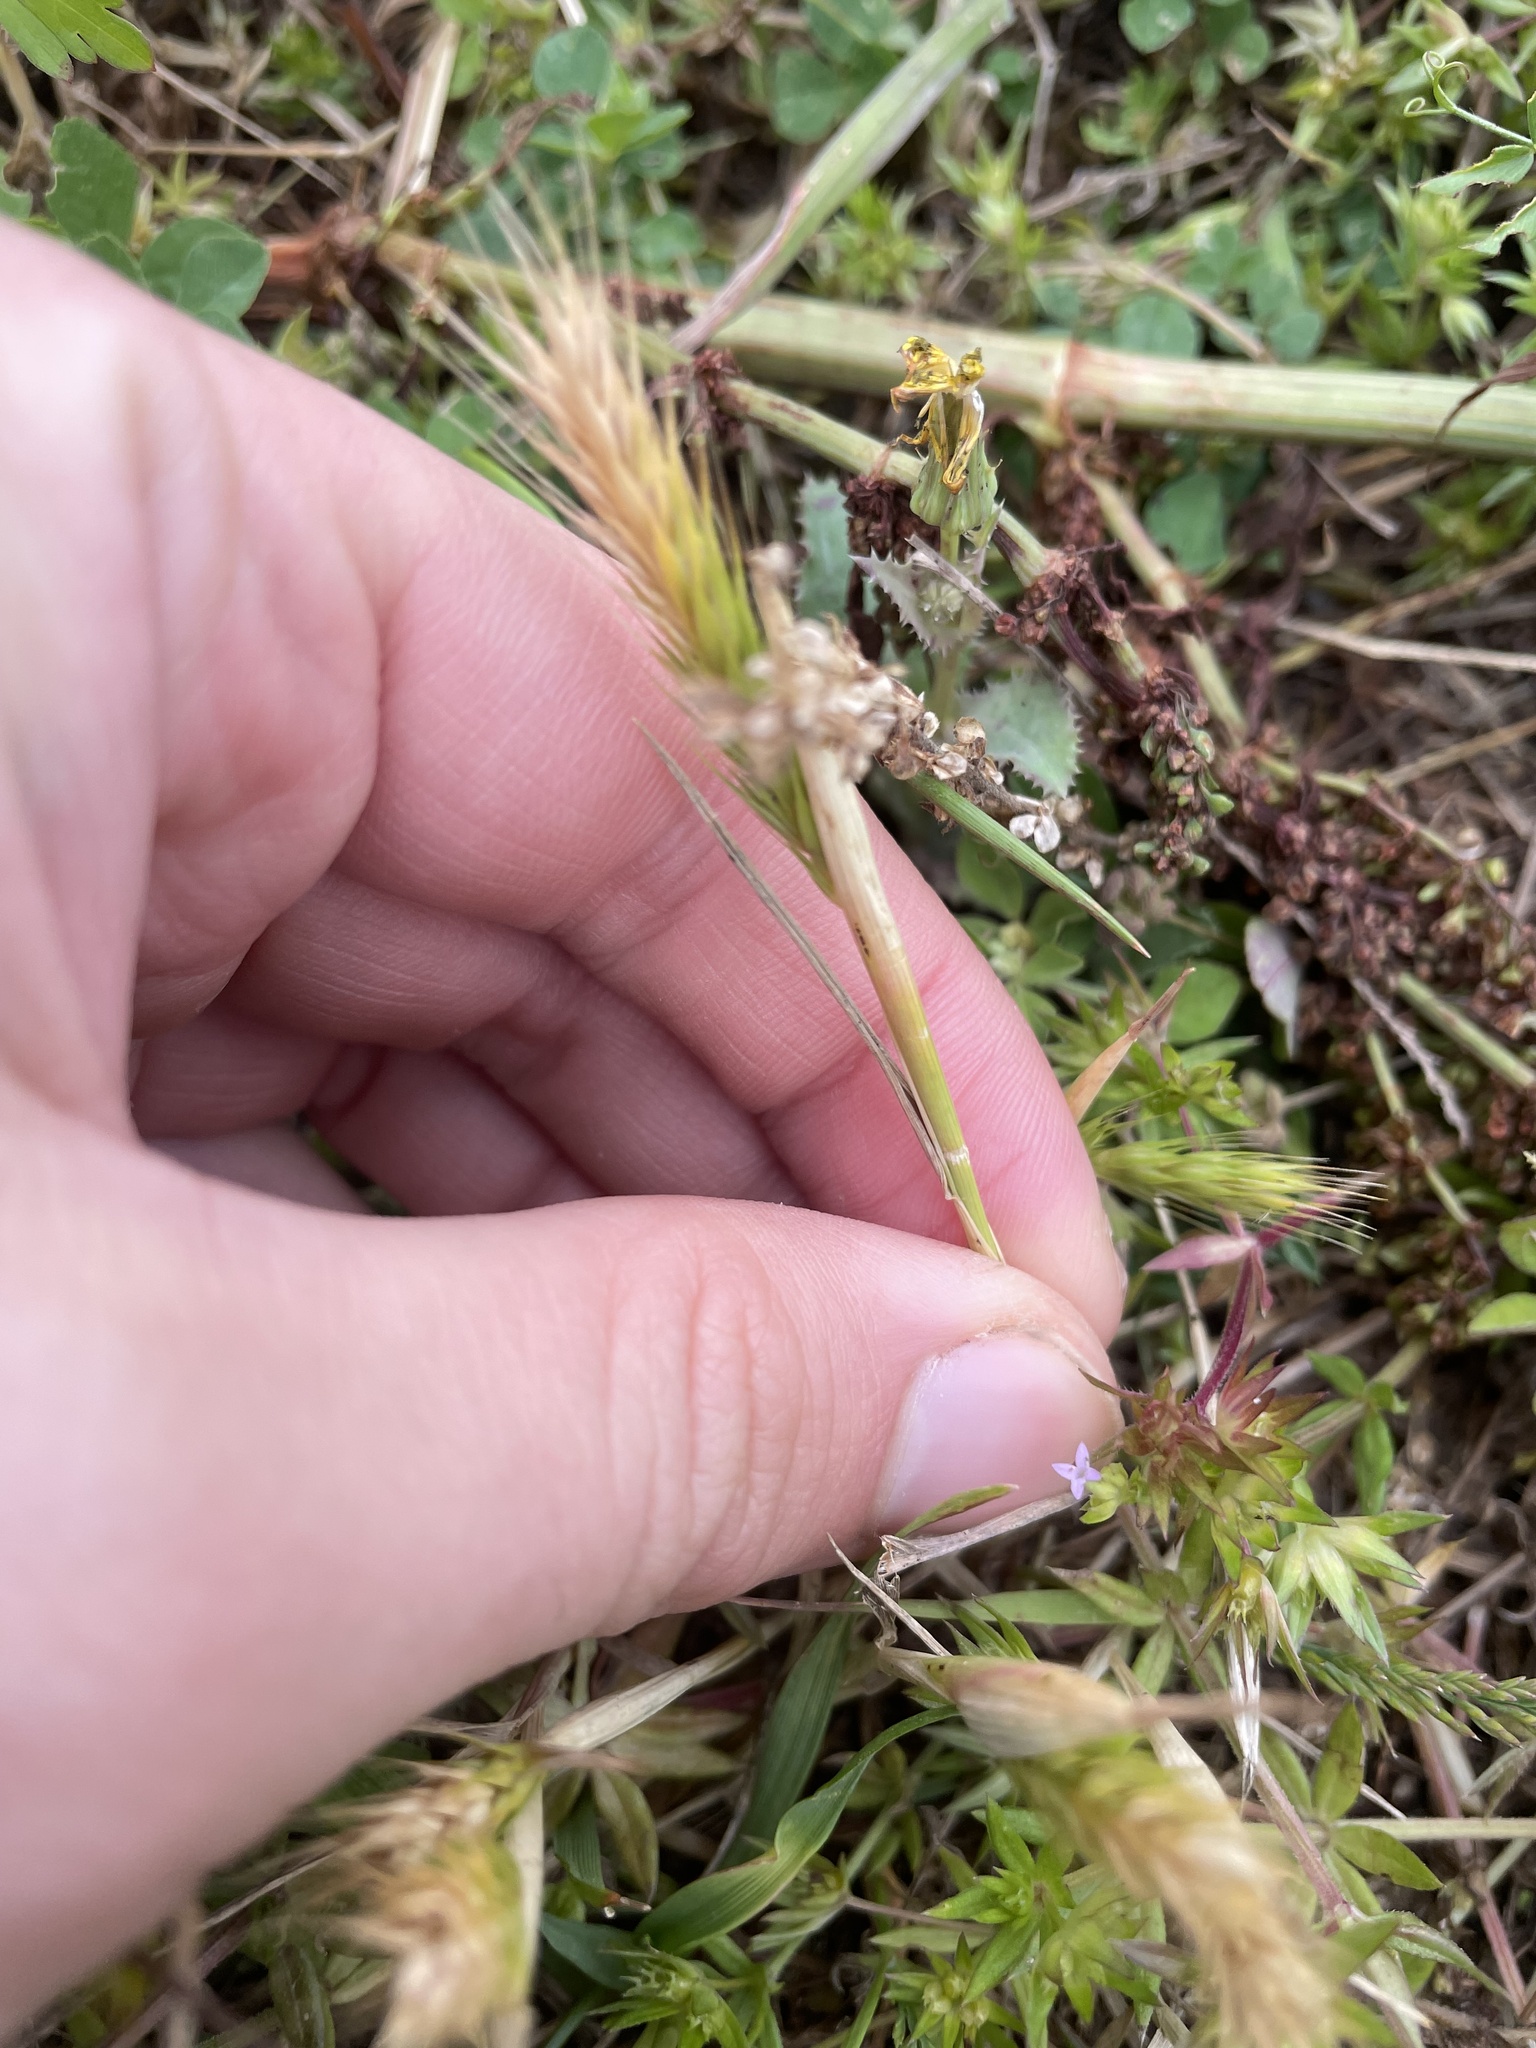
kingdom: Plantae
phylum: Tracheophyta
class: Liliopsida
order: Poales
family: Poaceae
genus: Hordeum
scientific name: Hordeum pusillum
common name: Little barley
